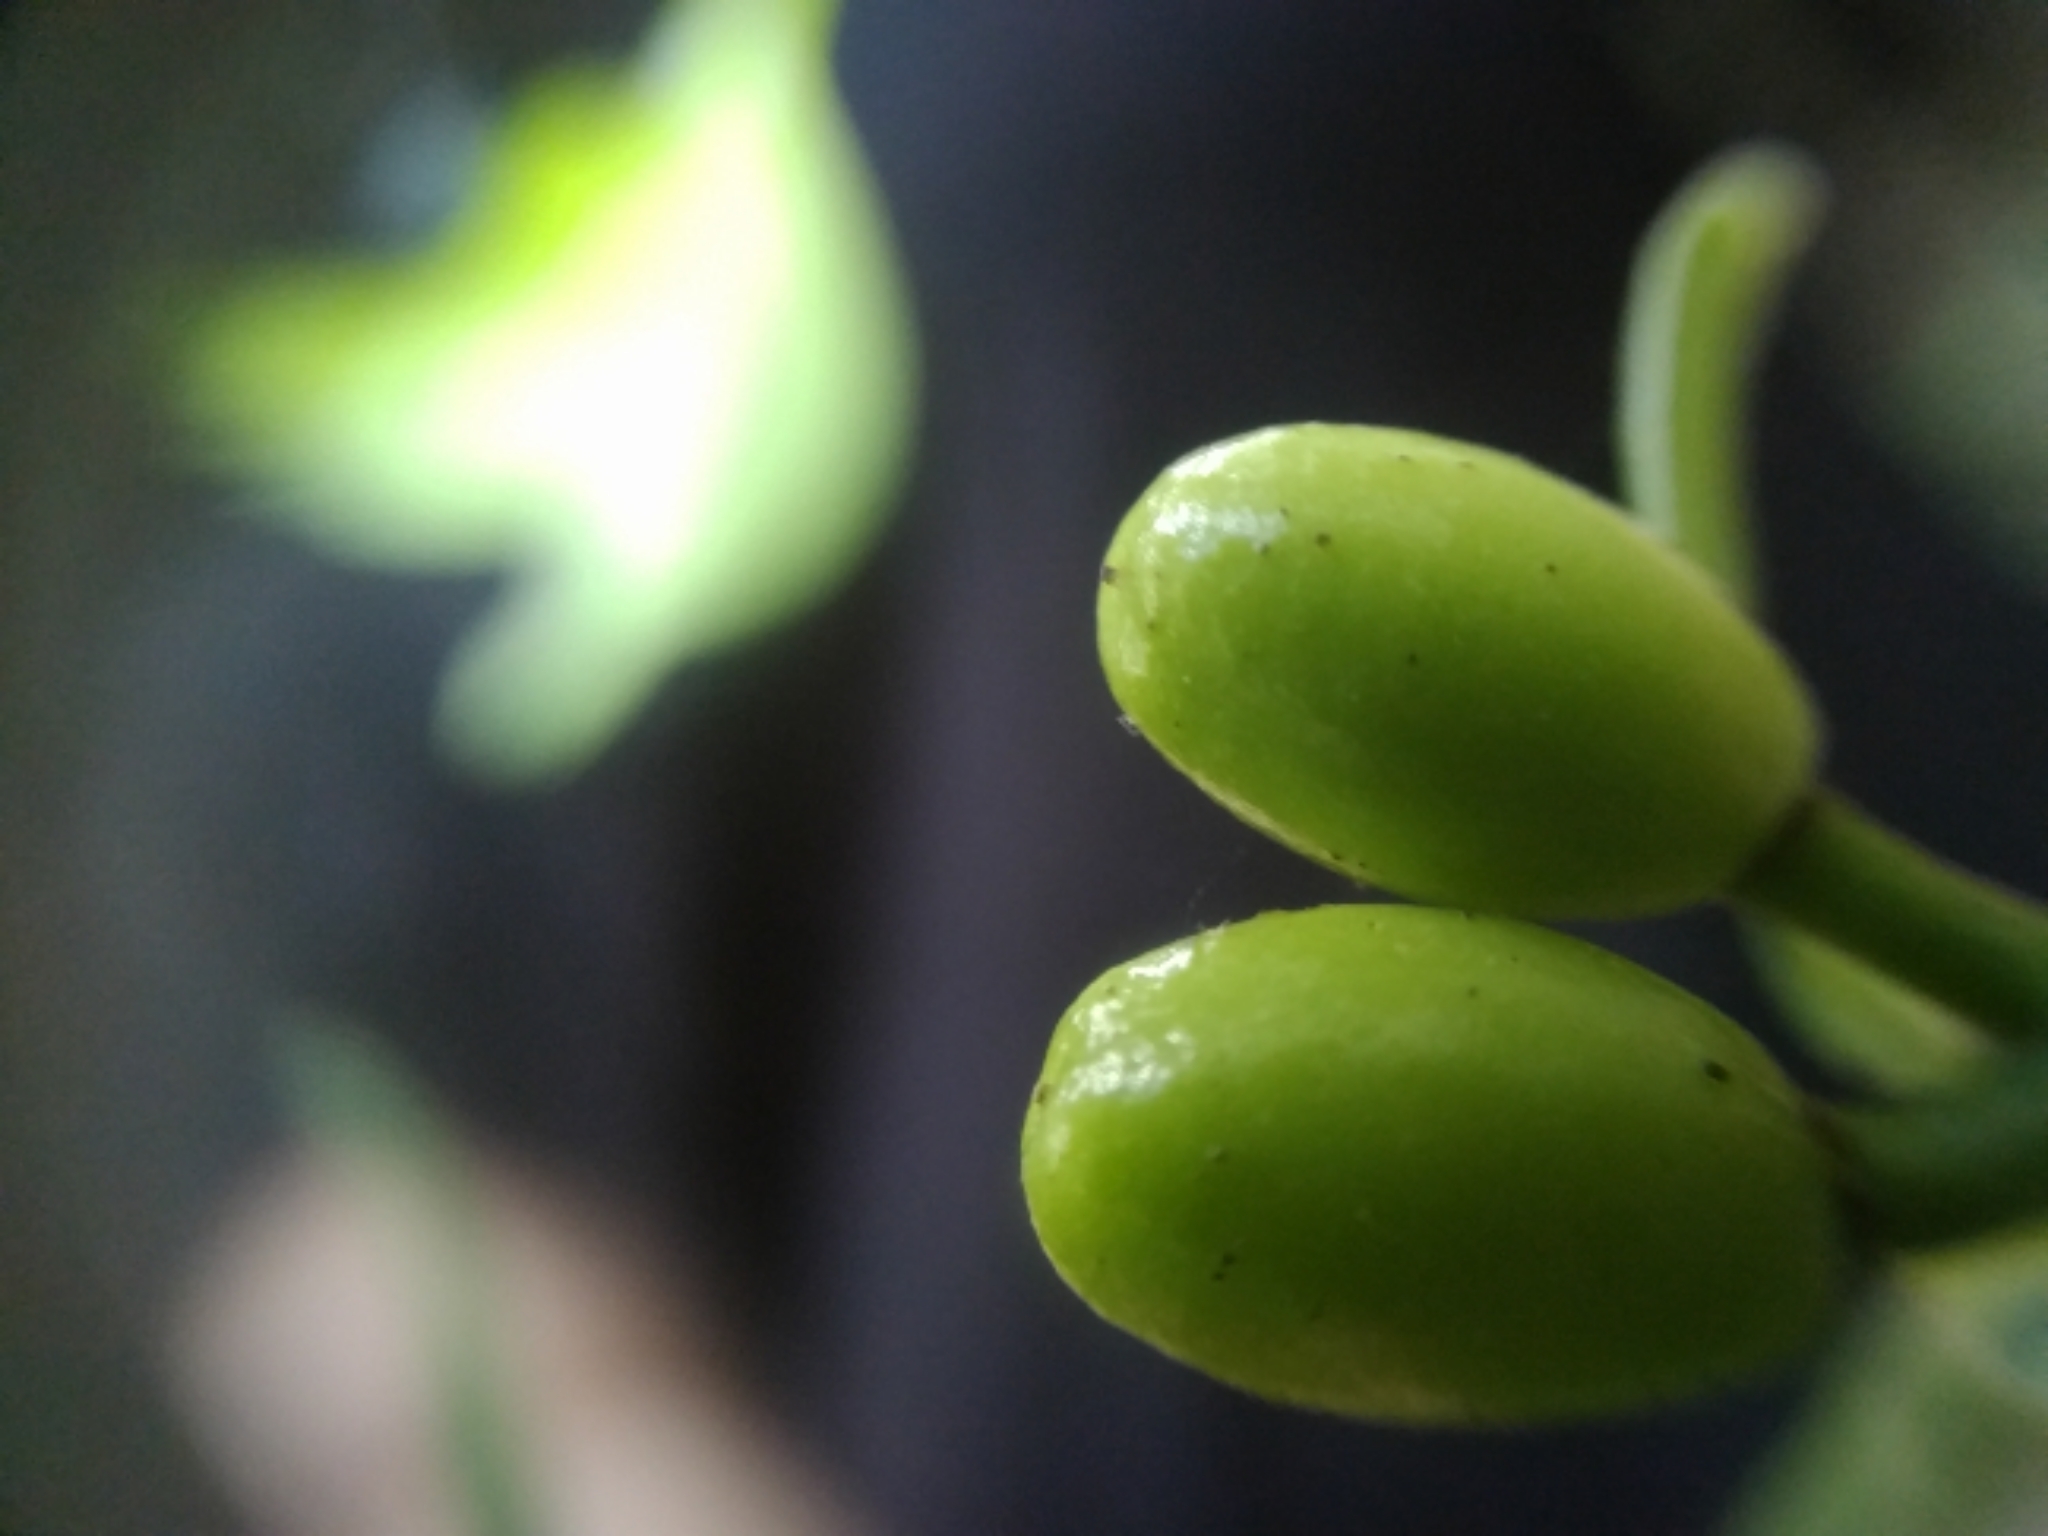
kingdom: Plantae
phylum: Tracheophyta
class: Magnoliopsida
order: Laurales
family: Lauraceae
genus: Lindera
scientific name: Lindera benzoin
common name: Spicebush
